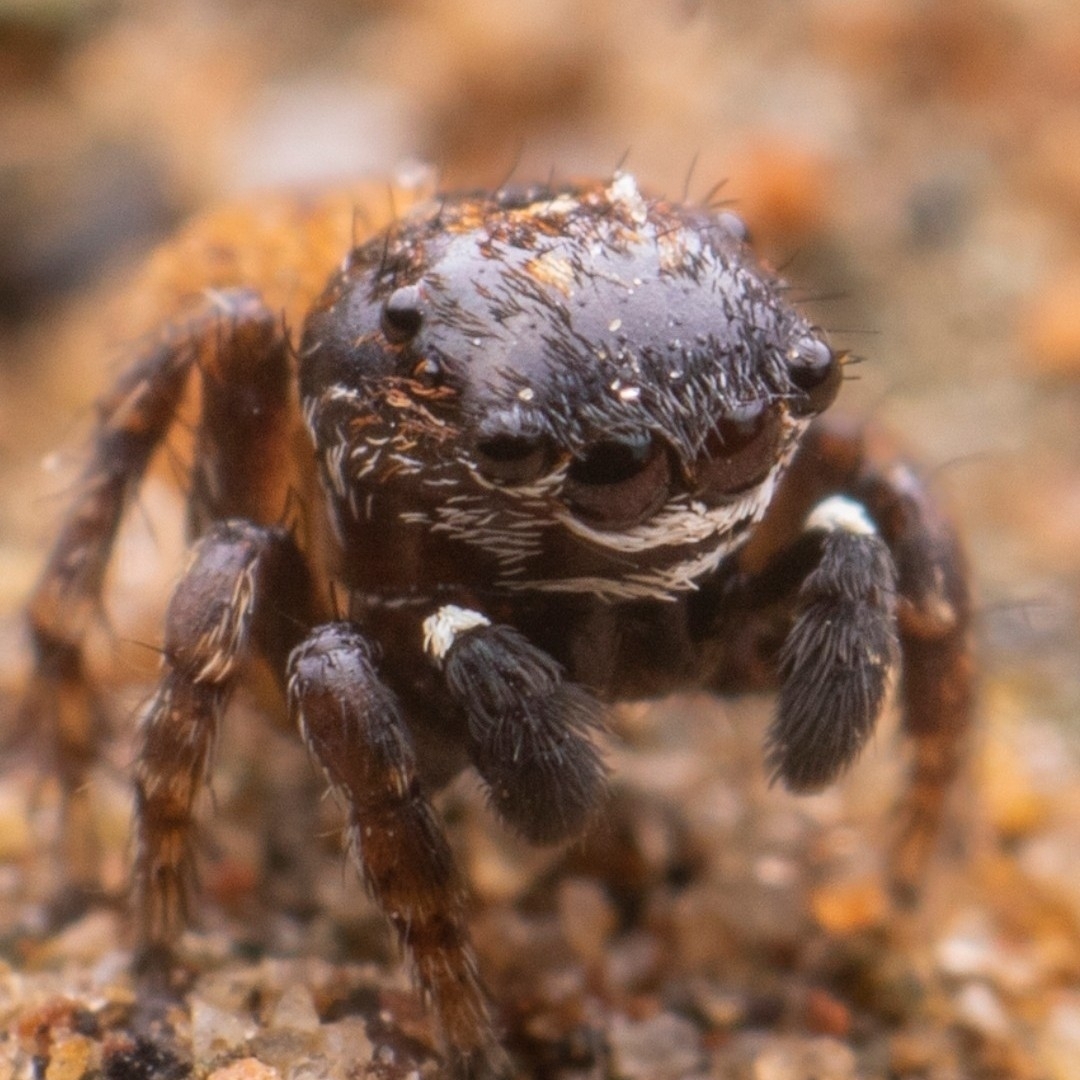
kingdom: Animalia
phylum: Arthropoda
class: Arachnida
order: Araneae
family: Salticidae
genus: Phanuelus
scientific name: Phanuelus gladstone
